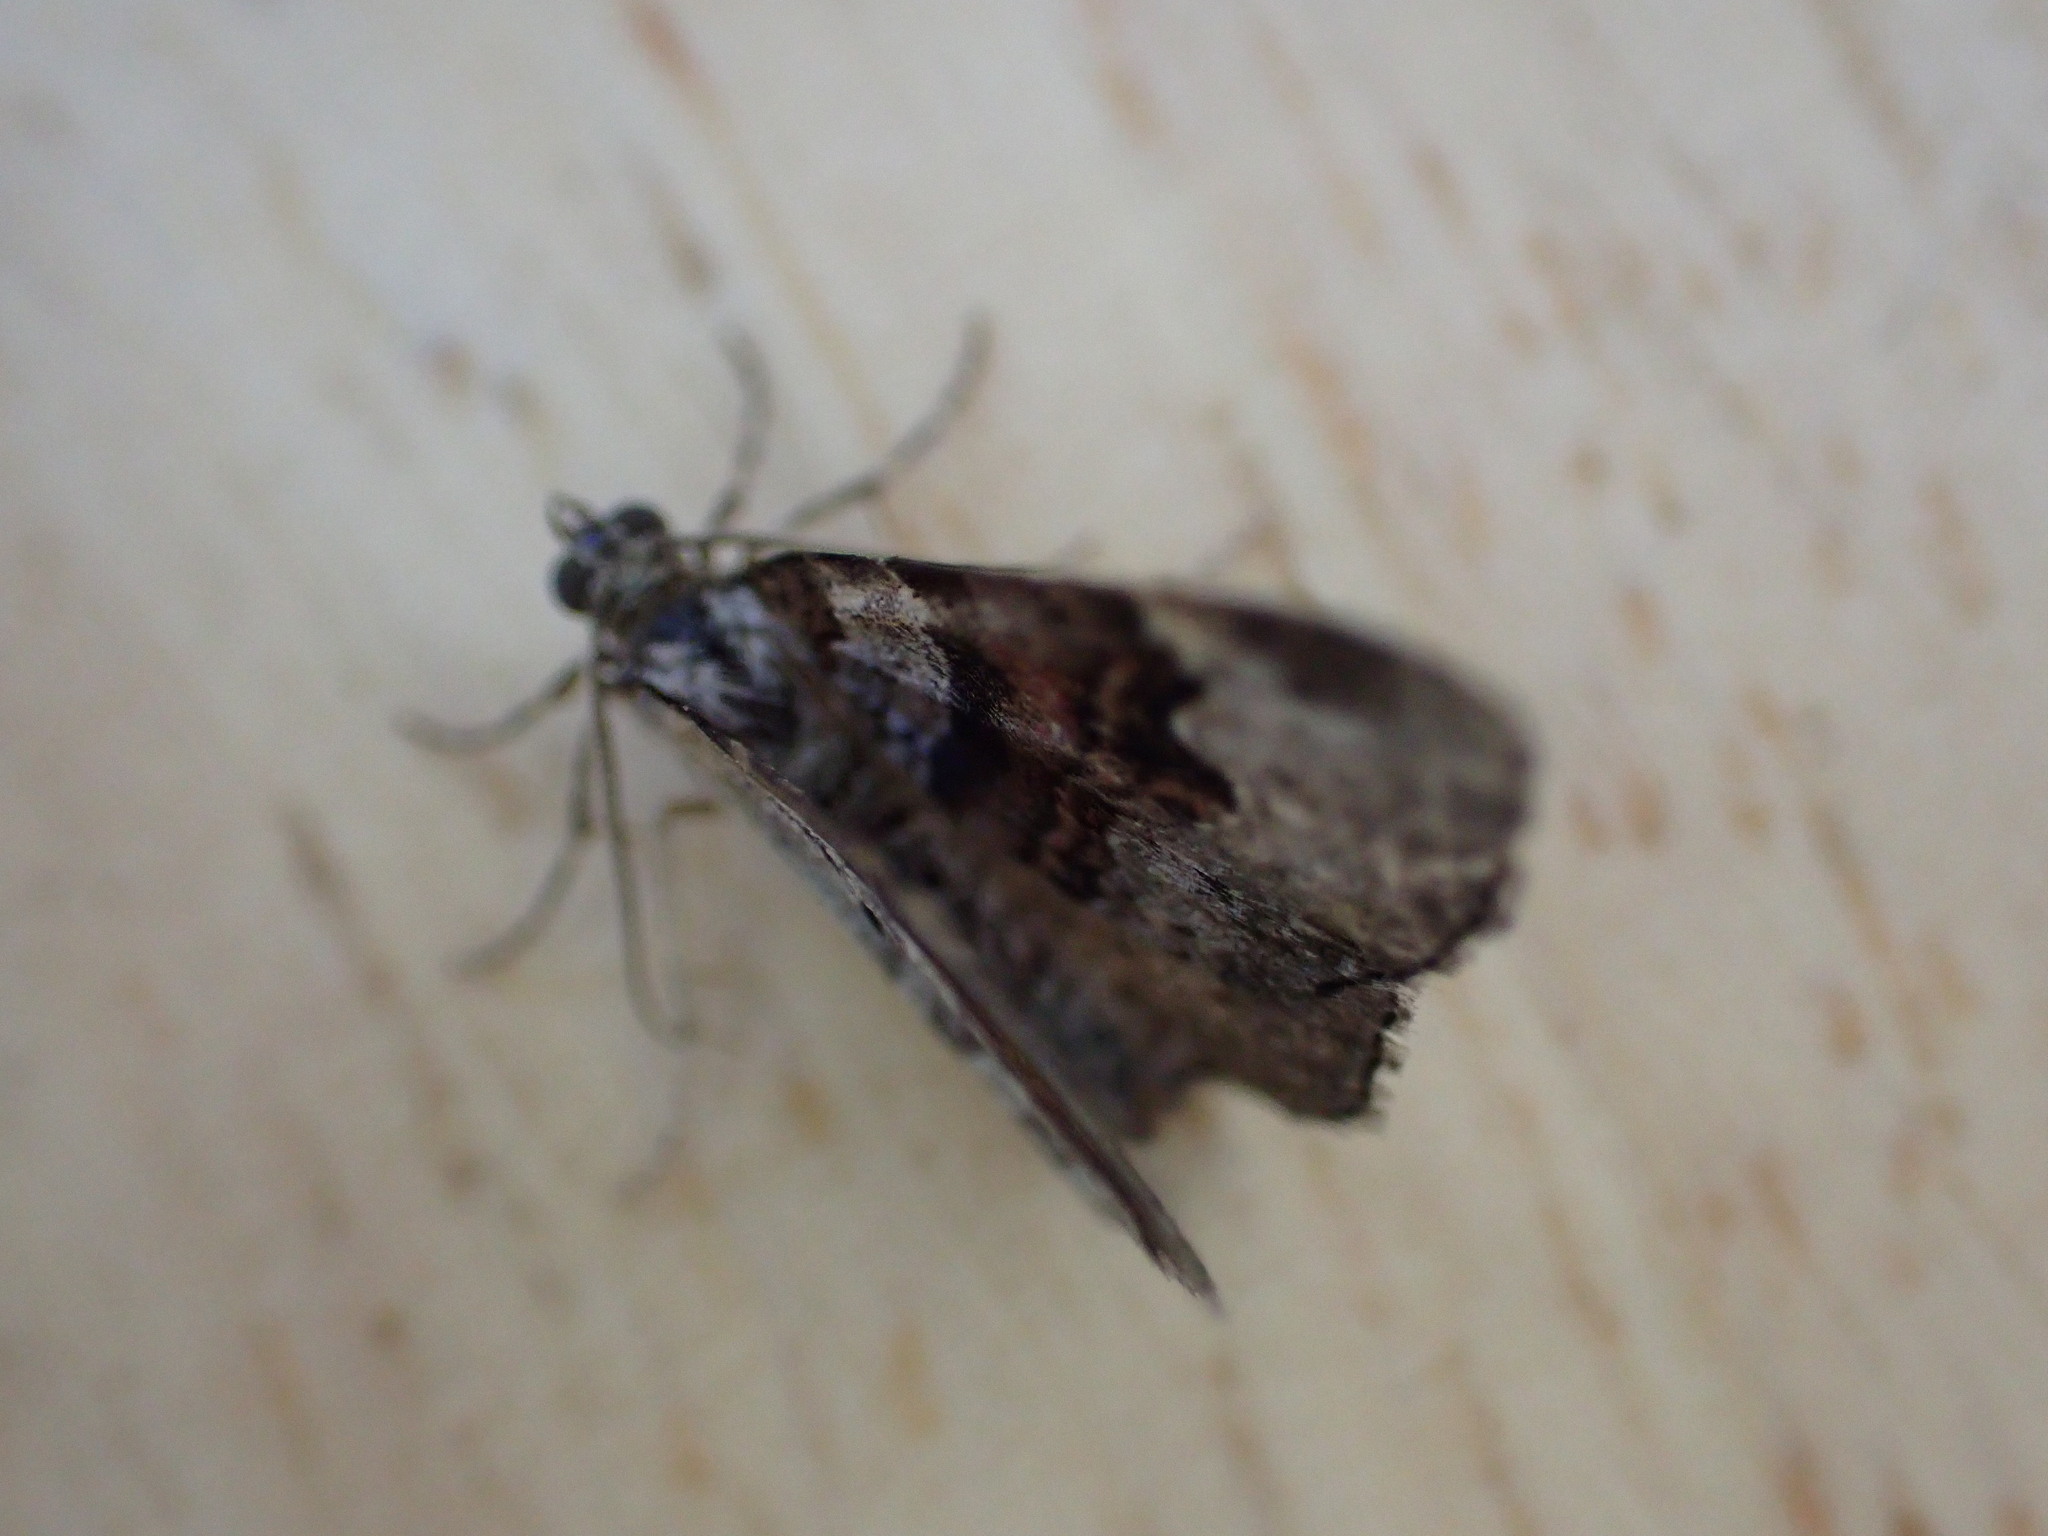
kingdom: Animalia
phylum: Arthropoda
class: Insecta
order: Lepidoptera
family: Geometridae
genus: Xanthorhoe
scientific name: Xanthorhoe designata
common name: Flame carpet
